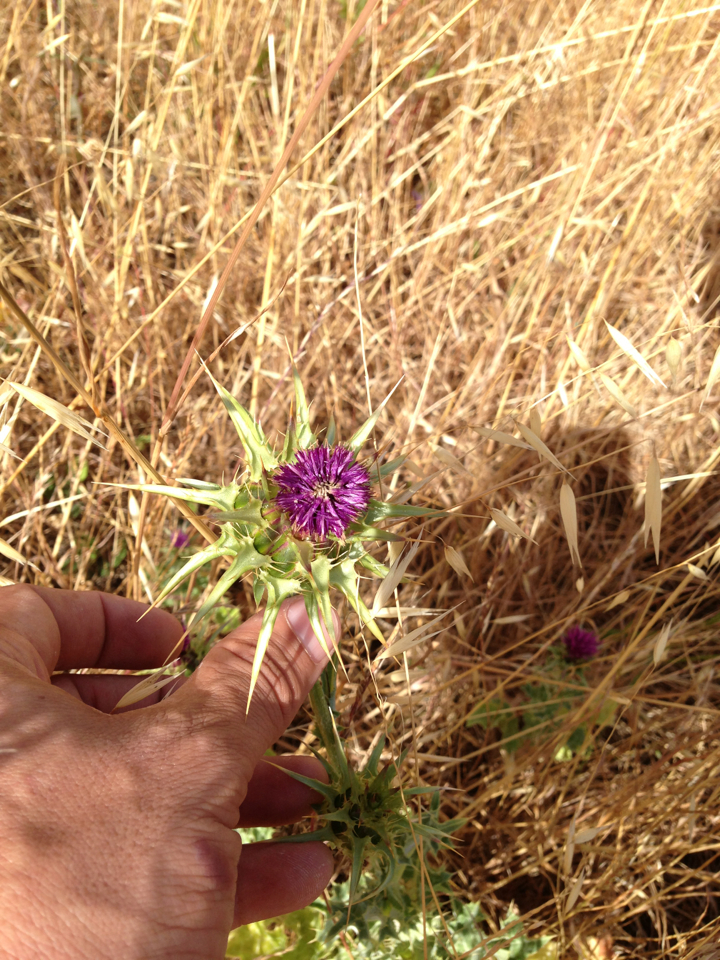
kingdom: Plantae
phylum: Tracheophyta
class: Magnoliopsida
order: Asterales
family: Asteraceae
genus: Silybum
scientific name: Silybum marianum
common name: Milk thistle
